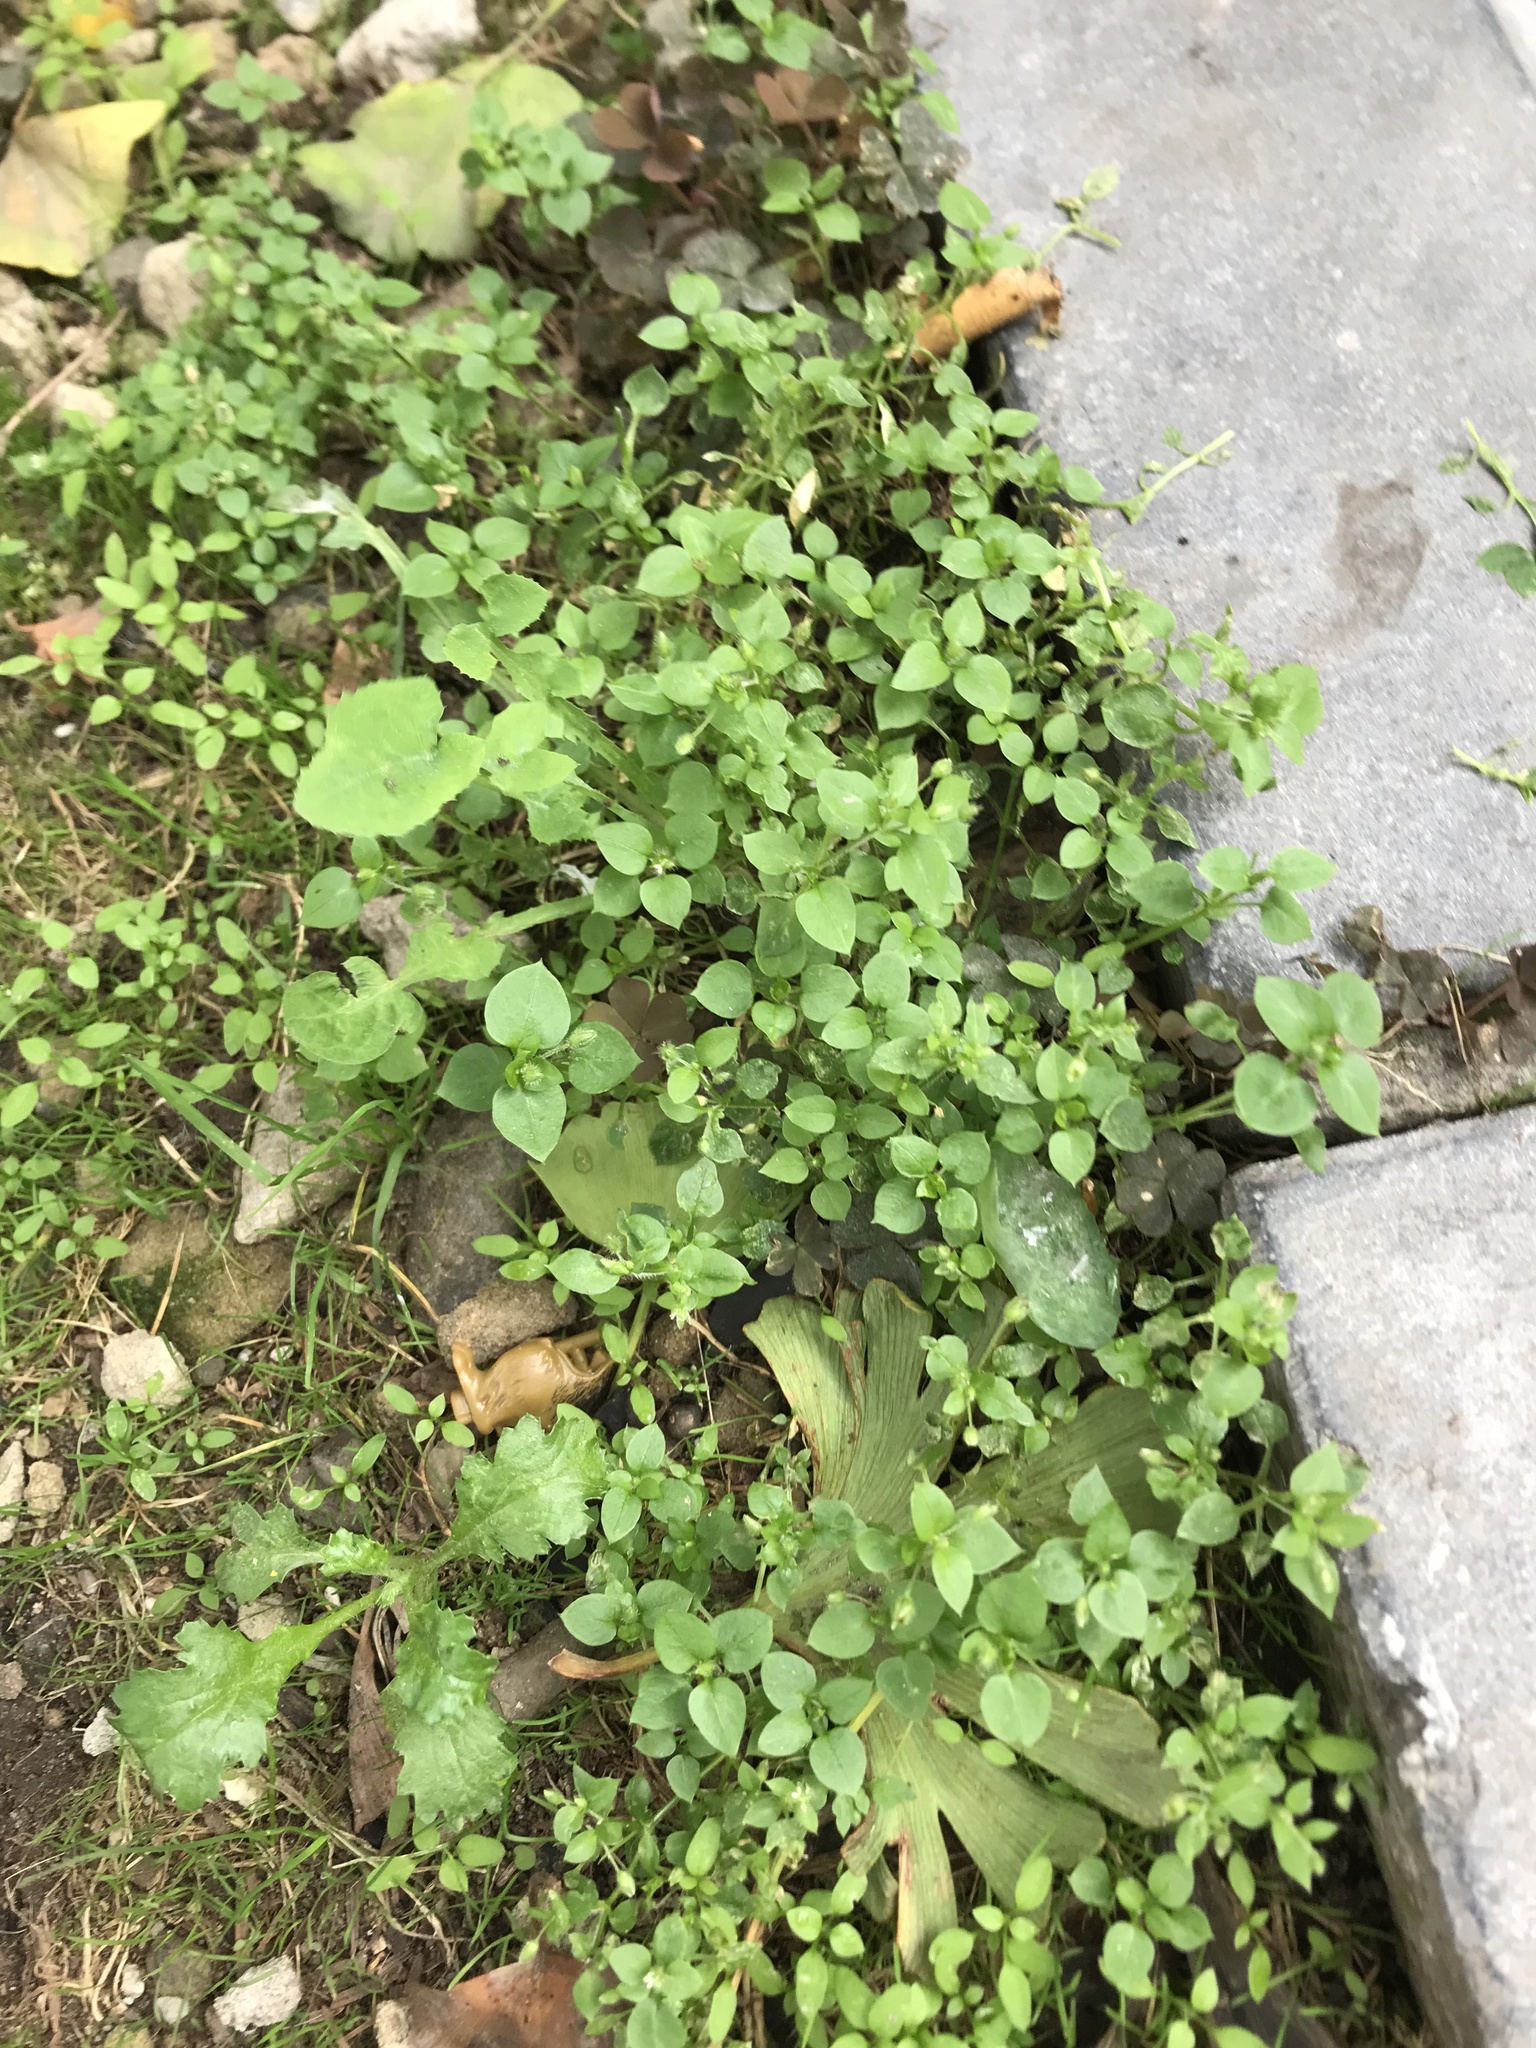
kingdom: Plantae
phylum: Tracheophyta
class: Magnoliopsida
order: Caryophyllales
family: Caryophyllaceae
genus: Stellaria
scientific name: Stellaria media
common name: Common chickweed
